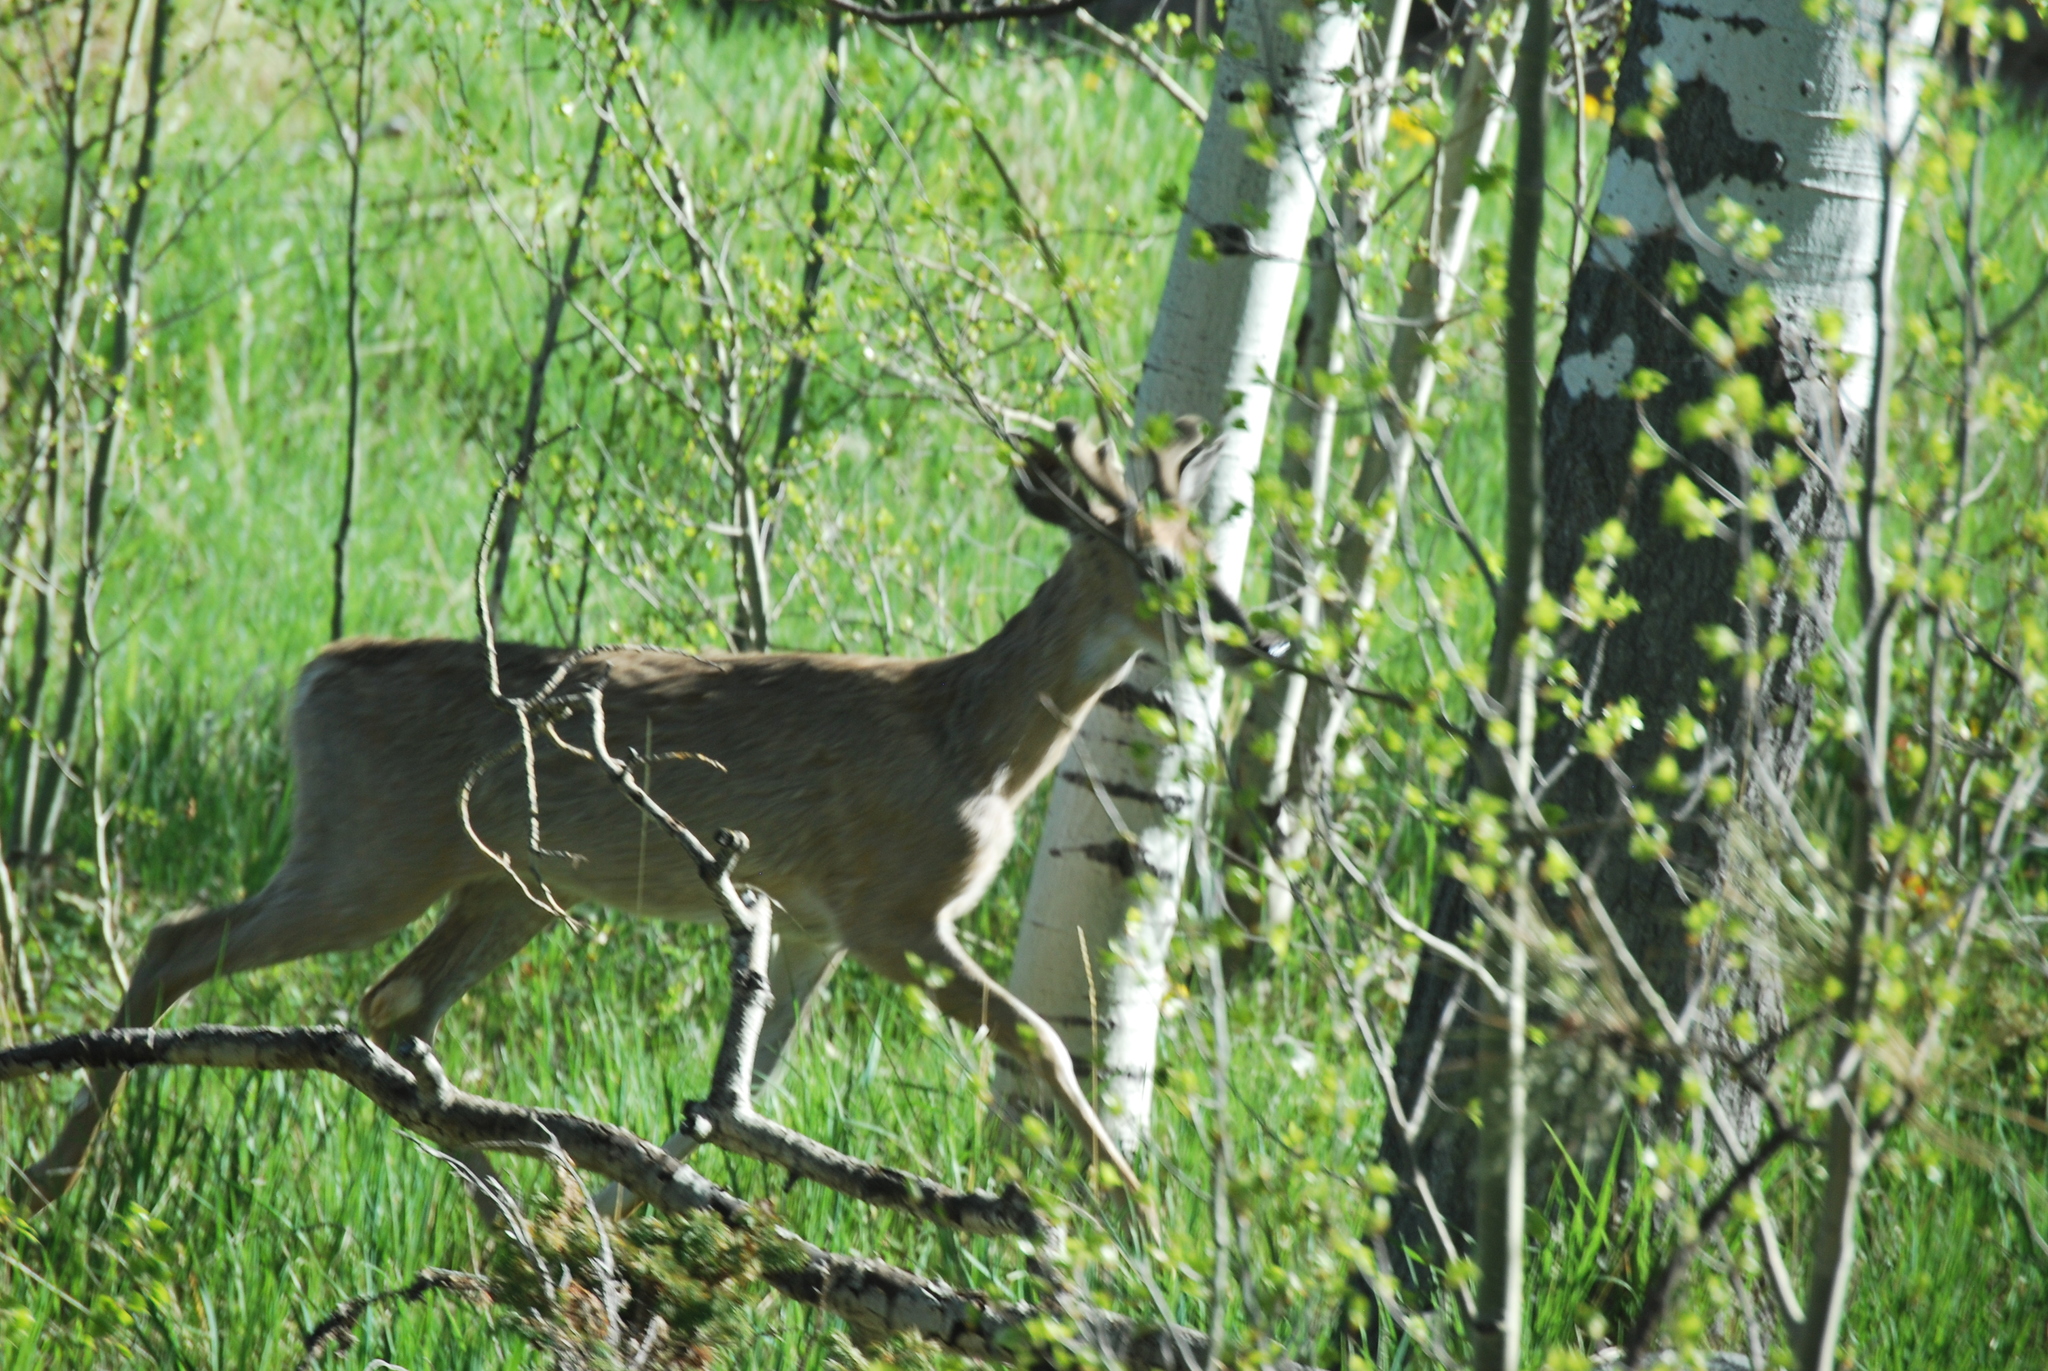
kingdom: Animalia
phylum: Chordata
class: Mammalia
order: Artiodactyla
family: Cervidae
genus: Odocoileus
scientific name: Odocoileus virginianus
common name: White-tailed deer
